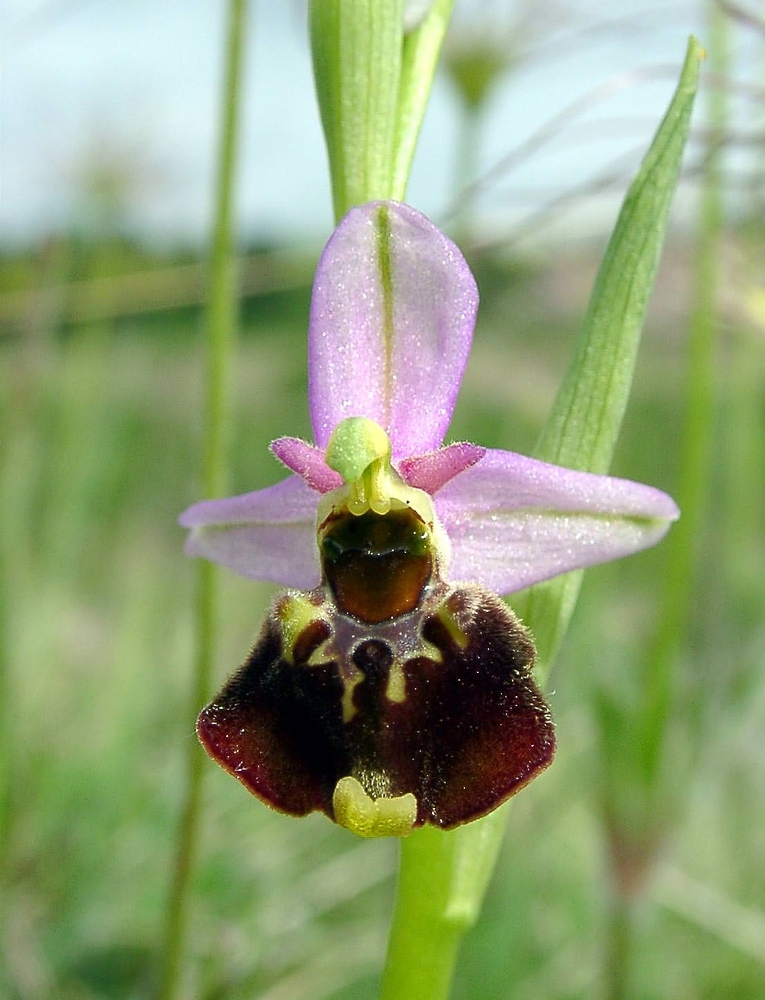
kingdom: Plantae
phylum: Tracheophyta
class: Liliopsida
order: Asparagales
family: Orchidaceae
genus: Ophrys
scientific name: Ophrys holosericea
